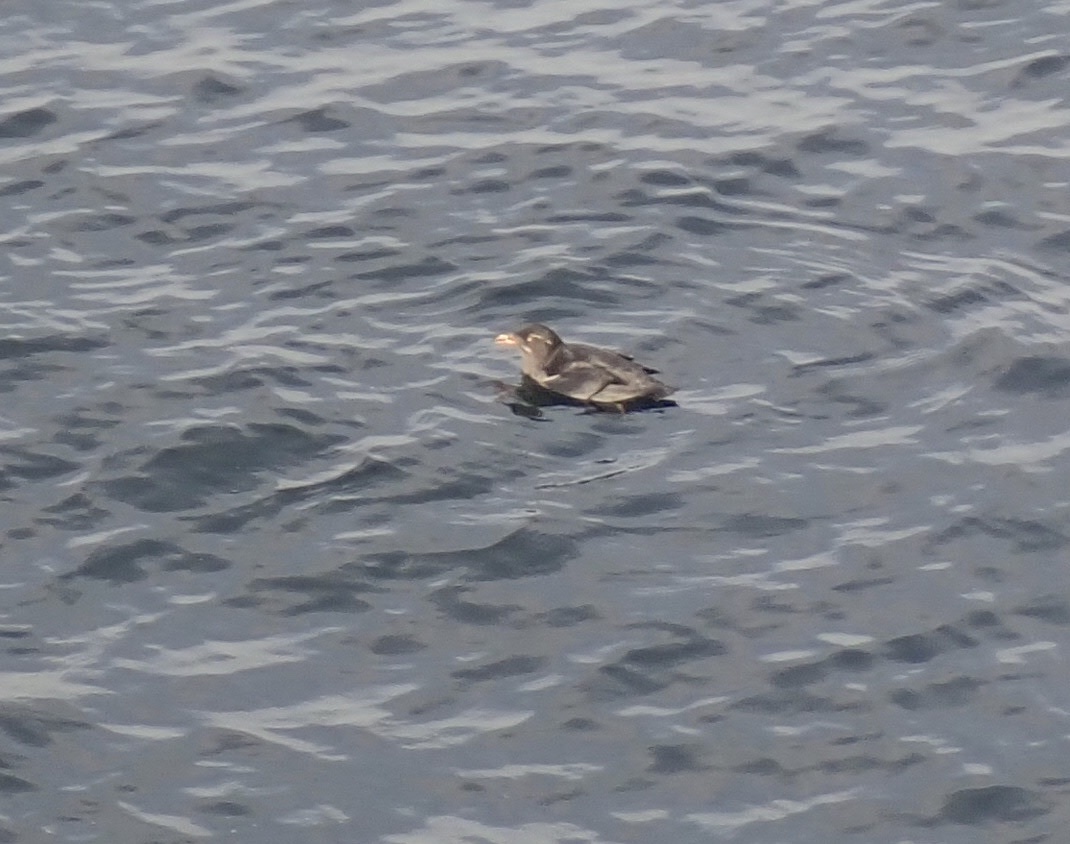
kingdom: Animalia
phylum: Chordata
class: Aves
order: Charadriiformes
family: Alcidae
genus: Cerorhinca
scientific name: Cerorhinca monocerata
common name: Rhinoceros auklet
